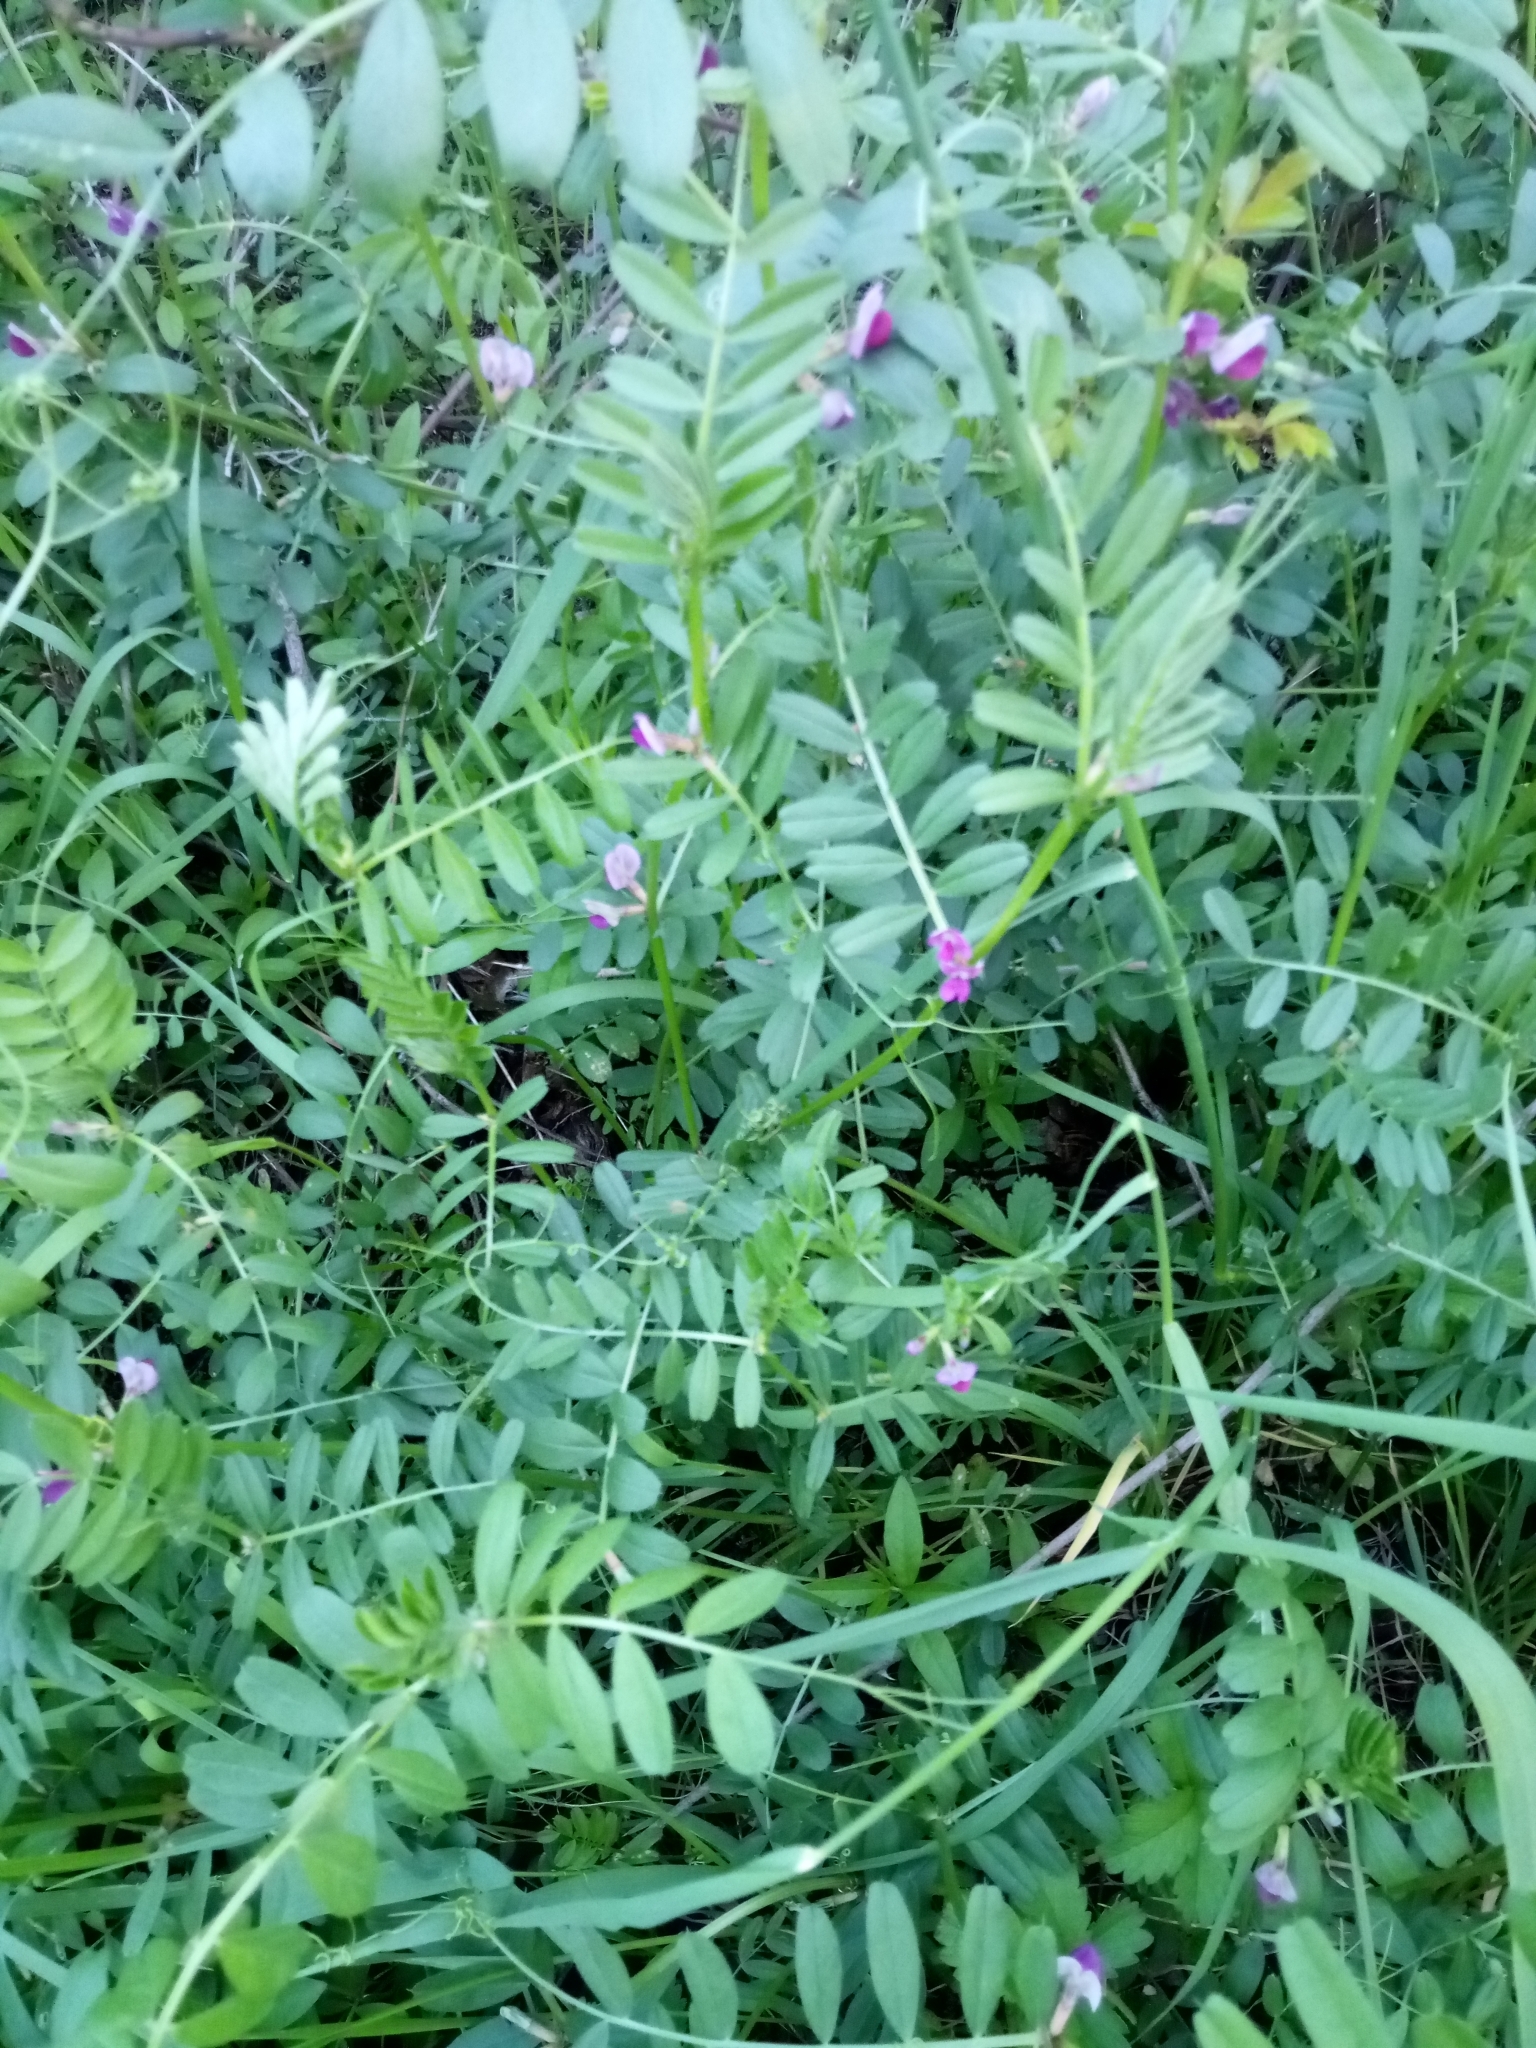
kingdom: Plantae
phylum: Tracheophyta
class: Magnoliopsida
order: Fabales
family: Fabaceae
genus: Vicia
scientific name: Vicia sativa
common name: Garden vetch
